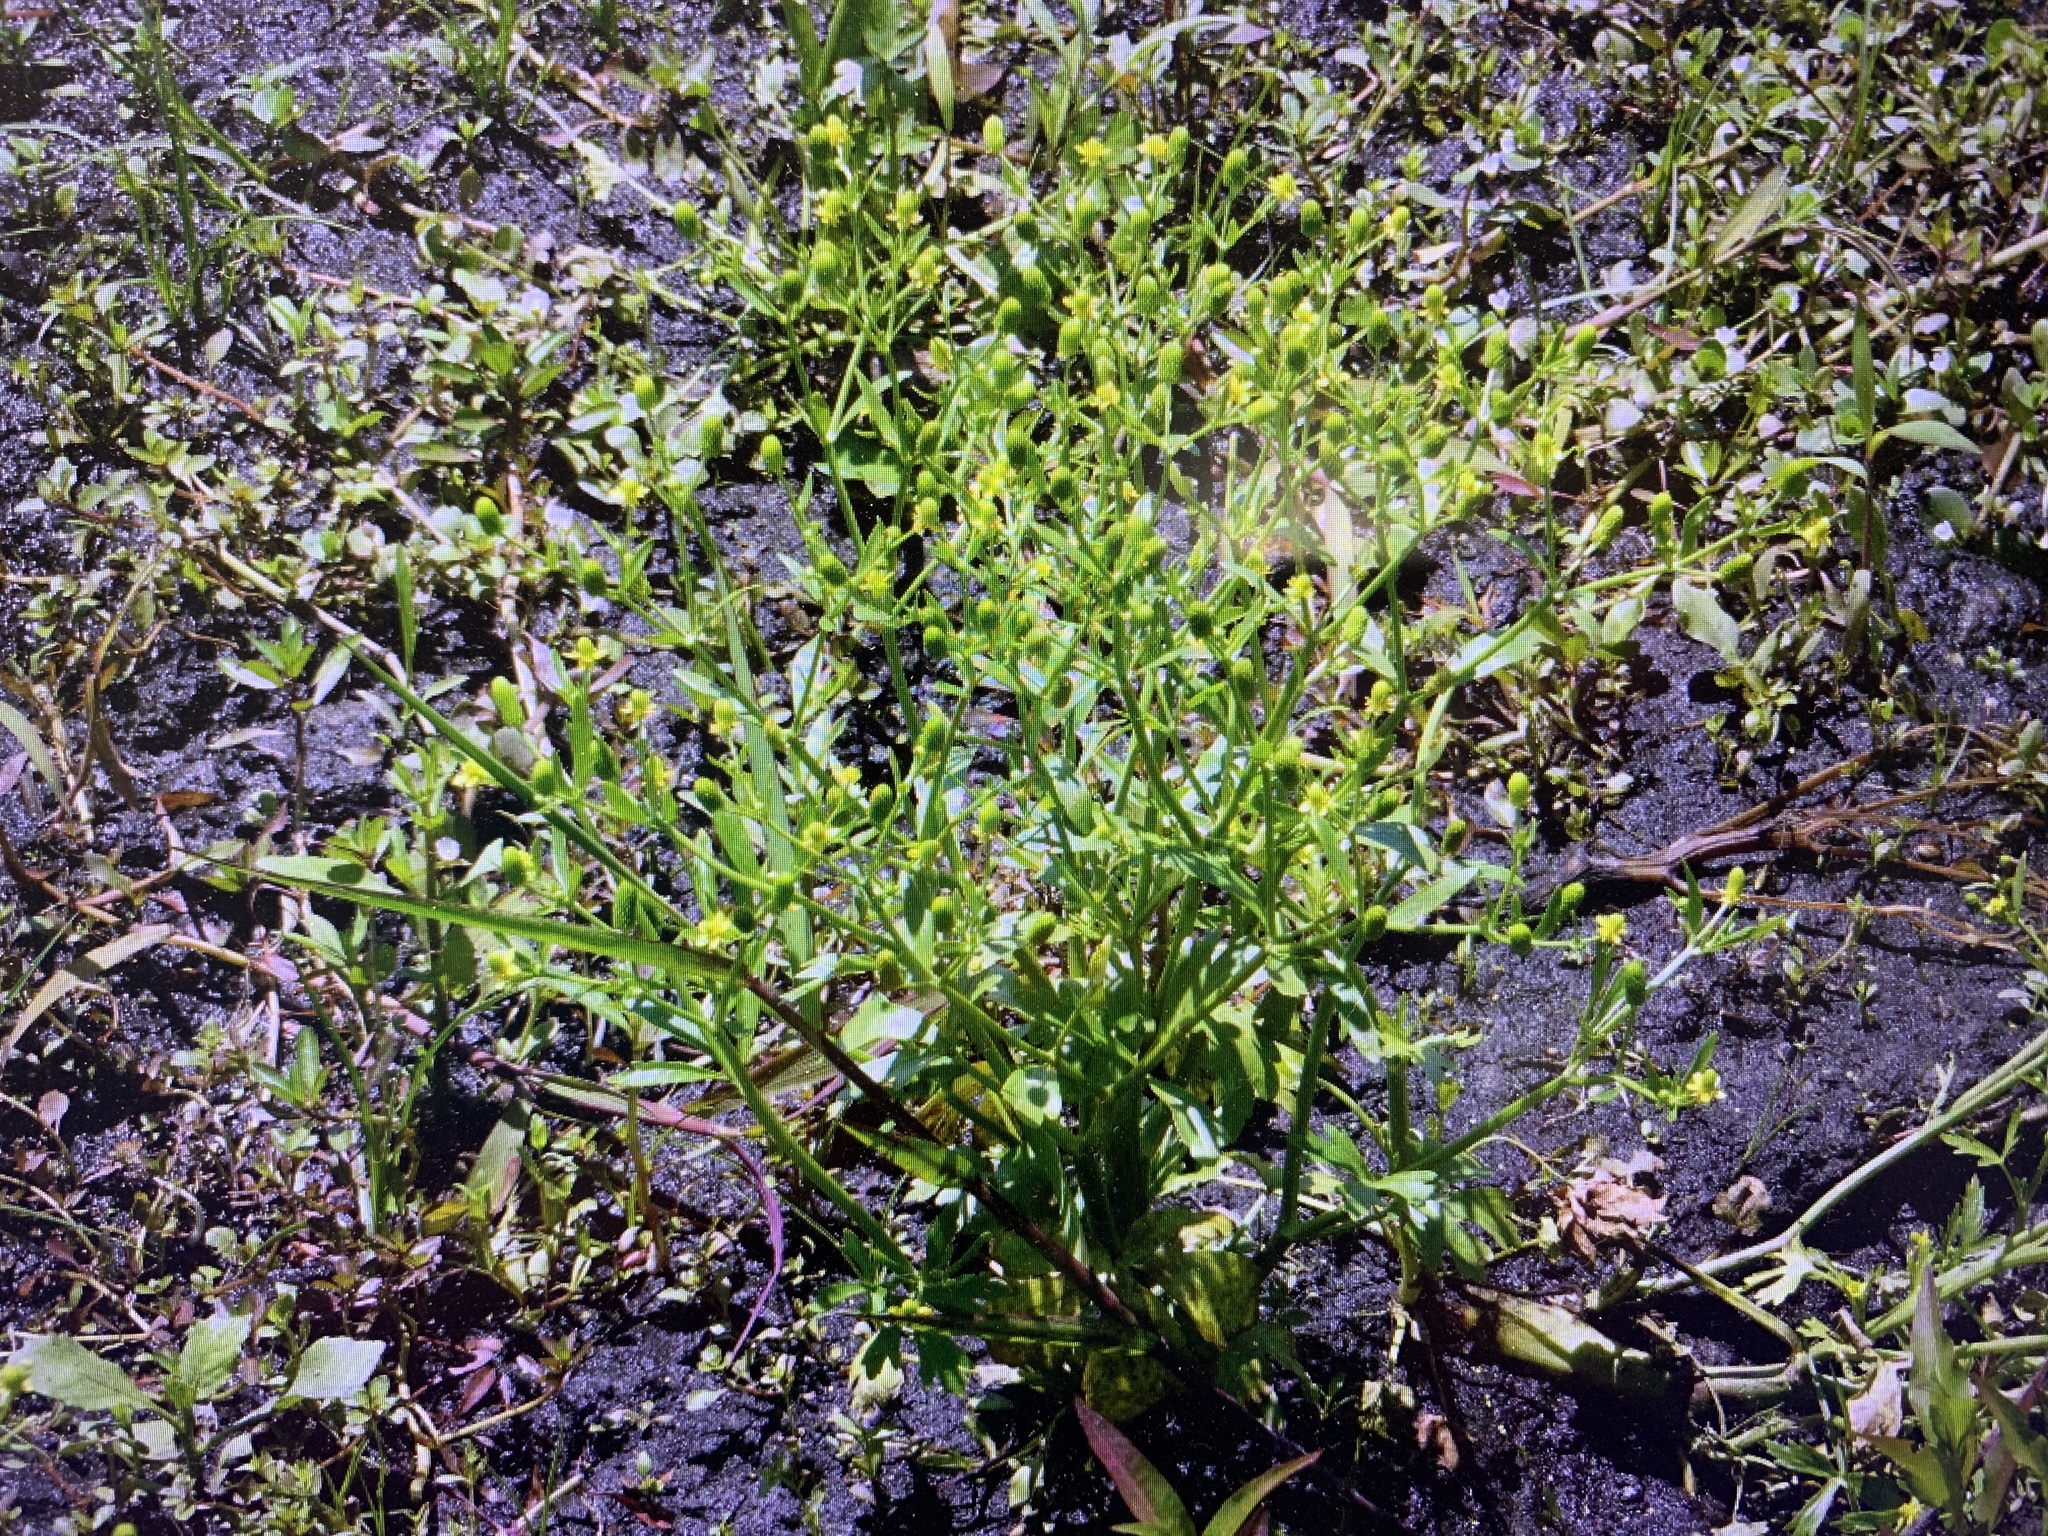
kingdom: Plantae
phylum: Tracheophyta
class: Magnoliopsida
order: Ranunculales
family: Ranunculaceae
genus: Ranunculus
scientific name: Ranunculus sceleratus
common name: Celery-leaved buttercup
